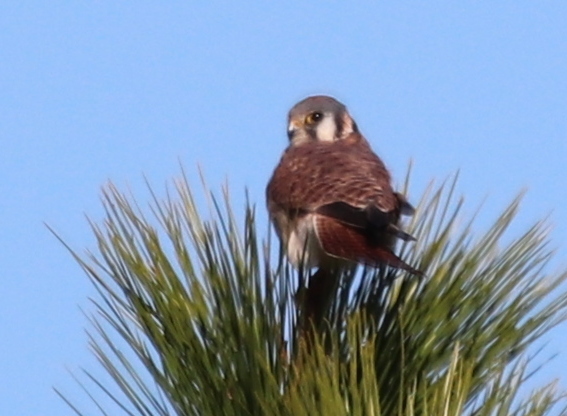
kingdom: Animalia
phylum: Chordata
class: Aves
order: Falconiformes
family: Falconidae
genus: Falco
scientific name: Falco sparverius
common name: American kestrel
